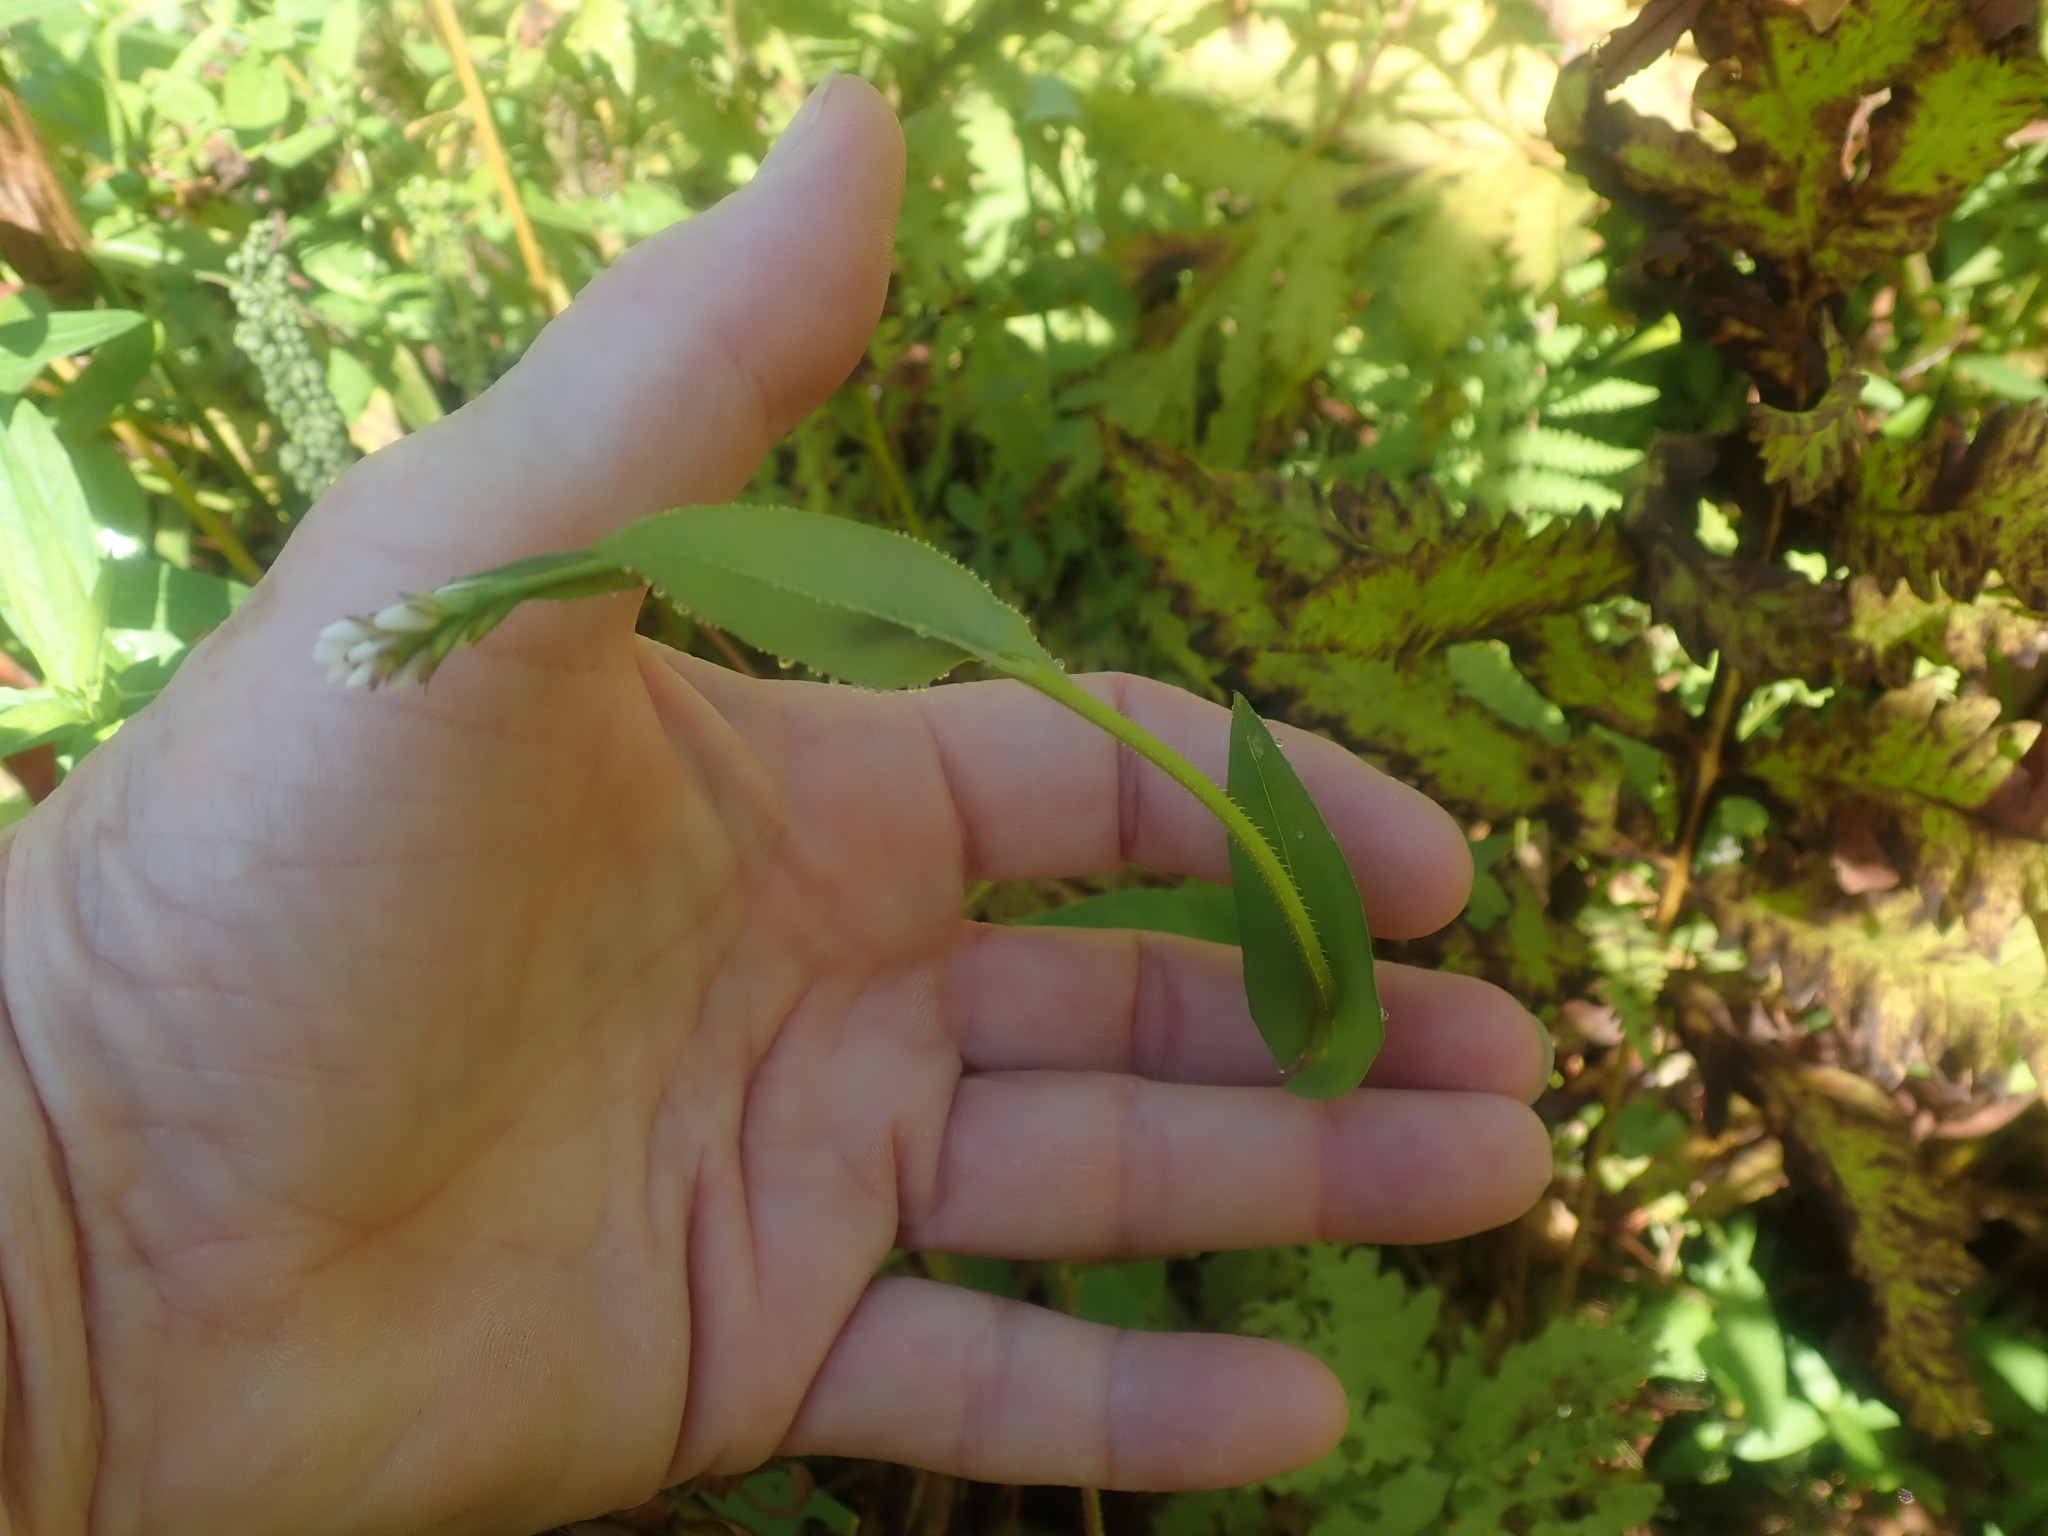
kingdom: Plantae
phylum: Tracheophyta
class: Magnoliopsida
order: Caryophyllales
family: Polygonaceae
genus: Persicaria
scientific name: Persicaria sagittata
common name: American tearthumb
